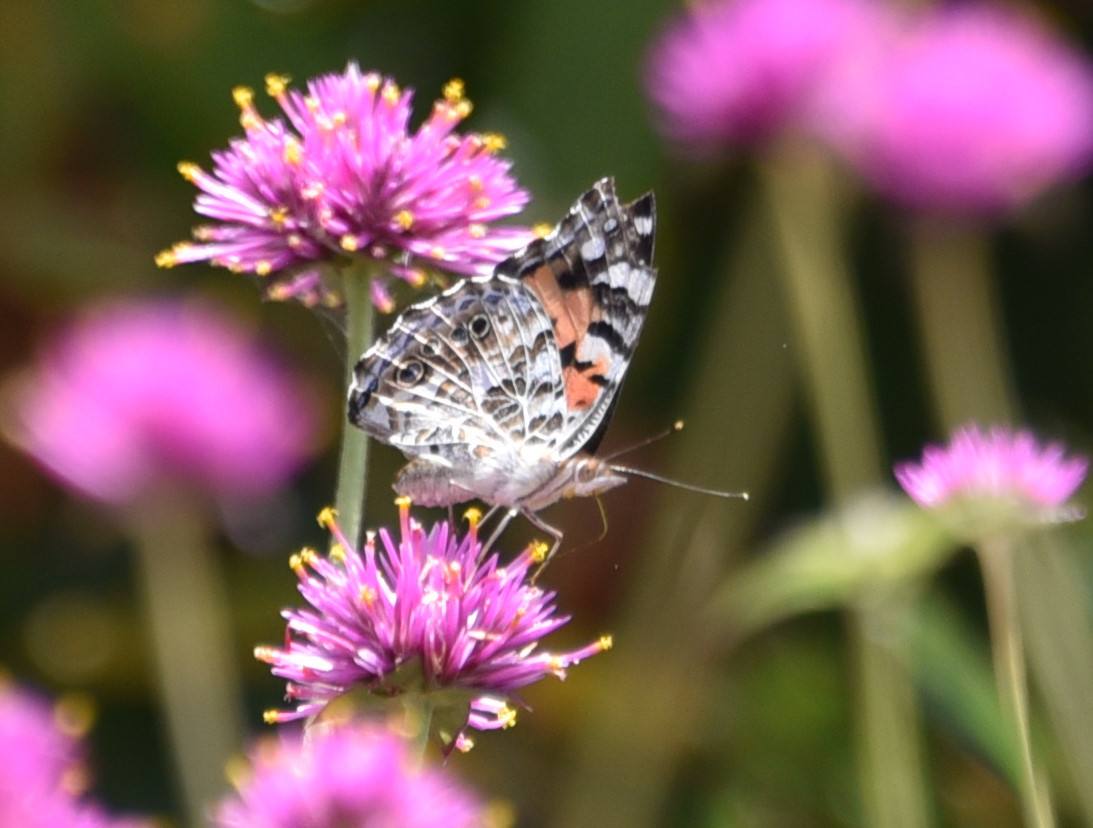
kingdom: Animalia
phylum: Arthropoda
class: Insecta
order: Lepidoptera
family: Nymphalidae
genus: Vanessa
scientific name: Vanessa cardui
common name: Painted lady
